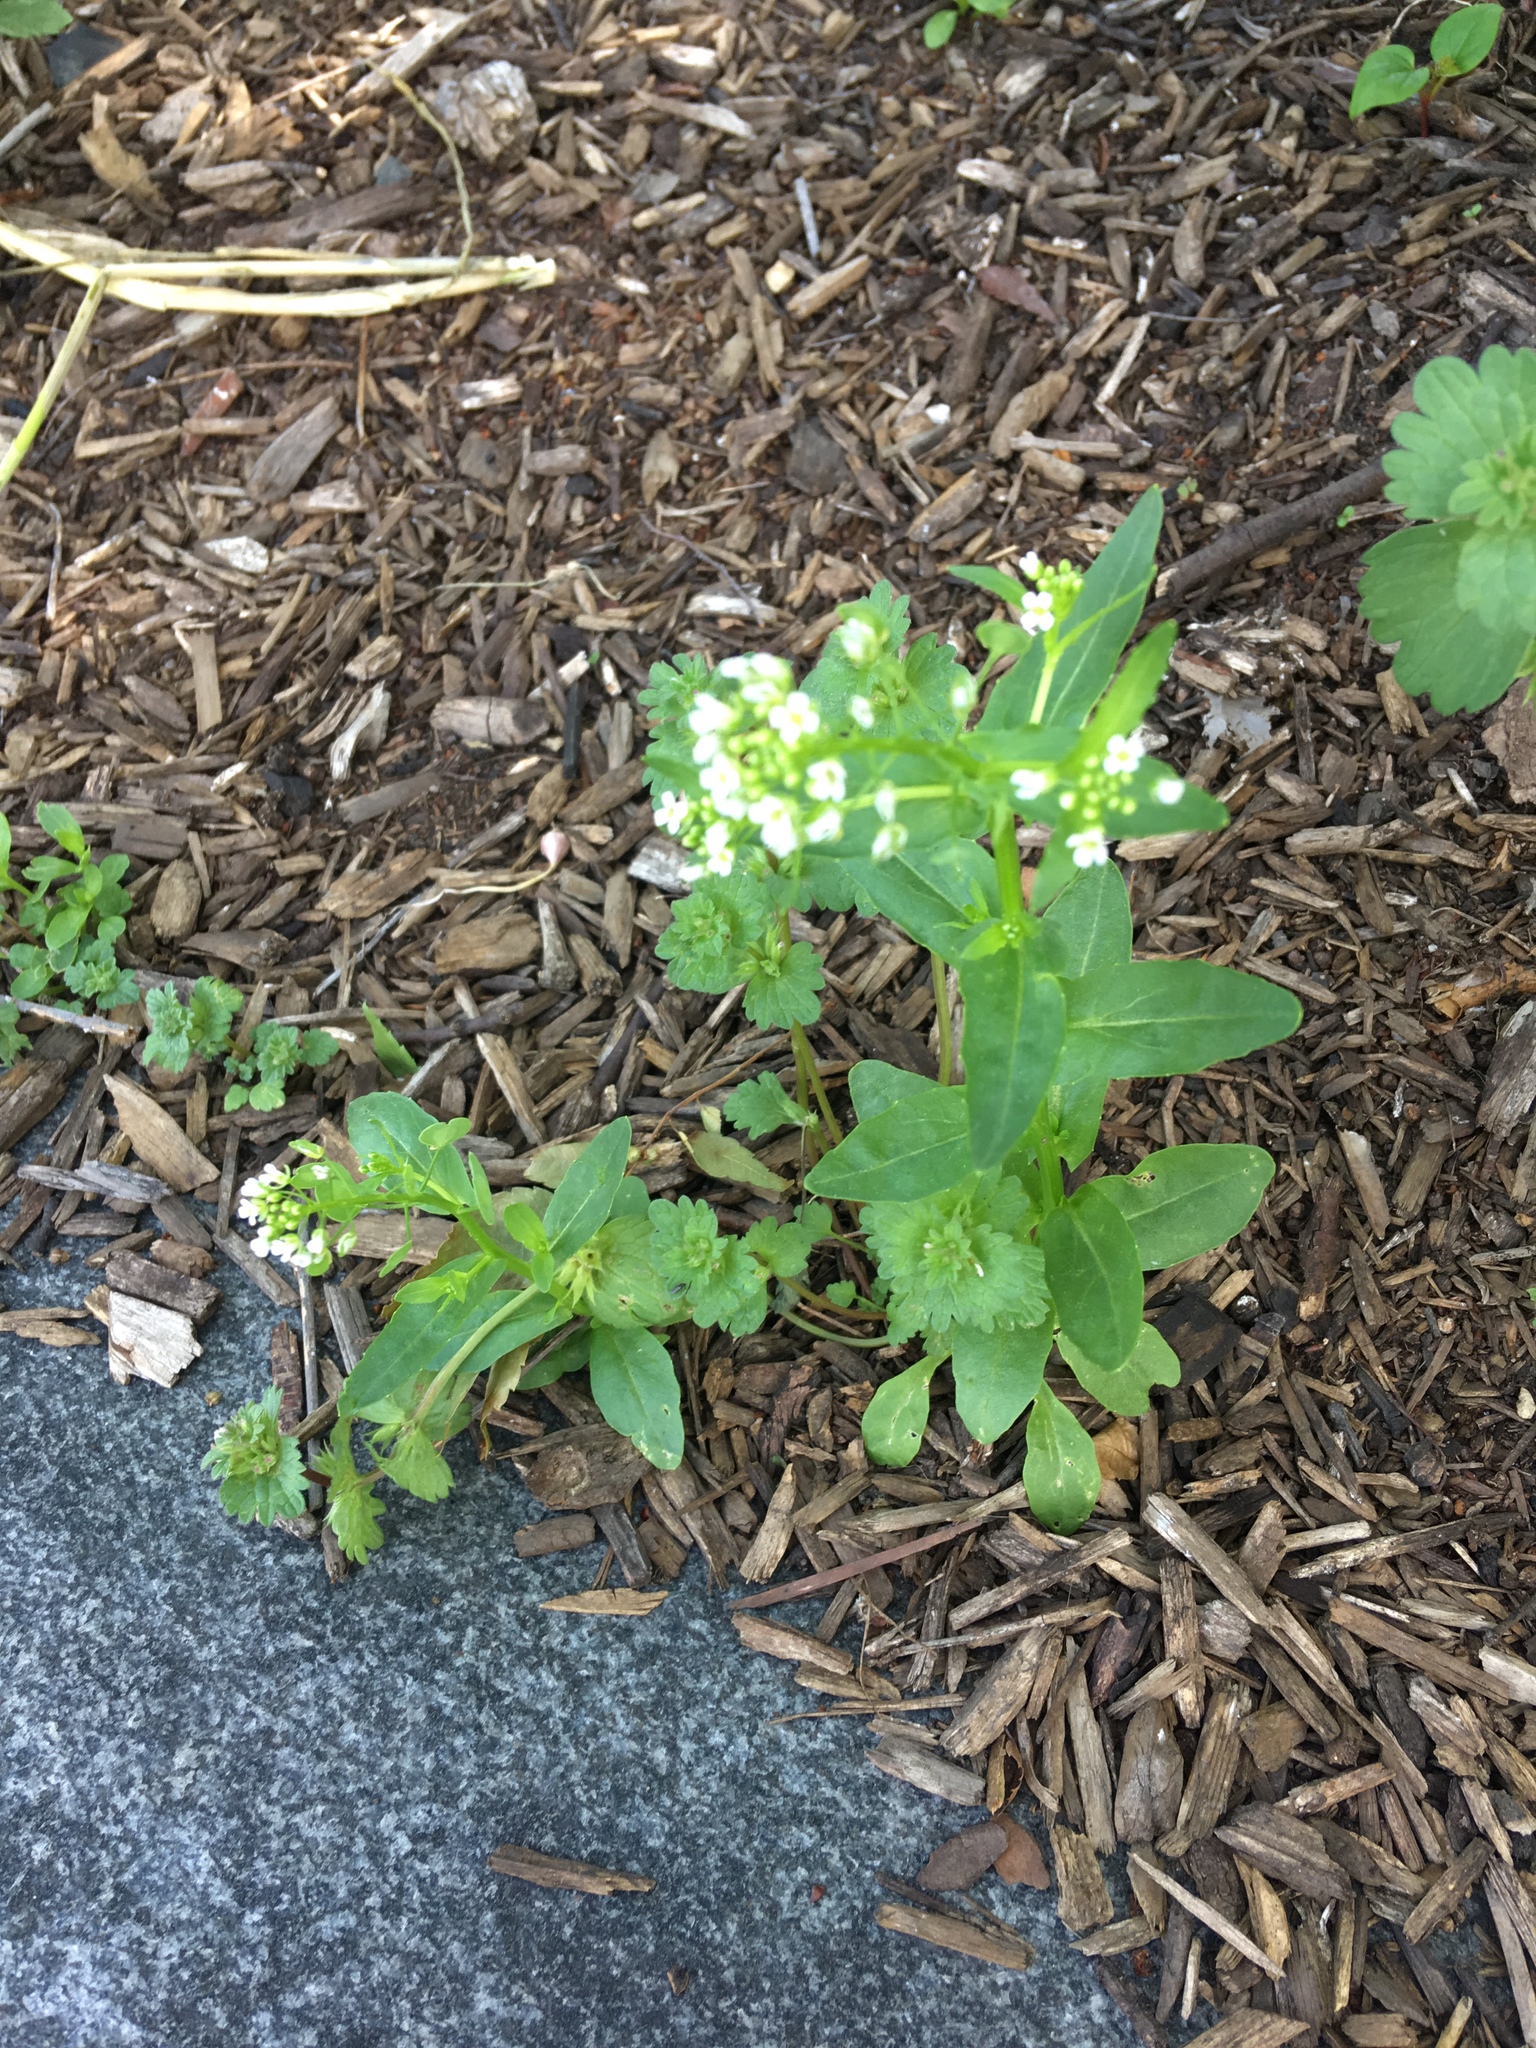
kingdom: Plantae
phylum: Tracheophyta
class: Magnoliopsida
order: Brassicales
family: Brassicaceae
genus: Thlaspi
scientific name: Thlaspi arvense
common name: Field pennycress
